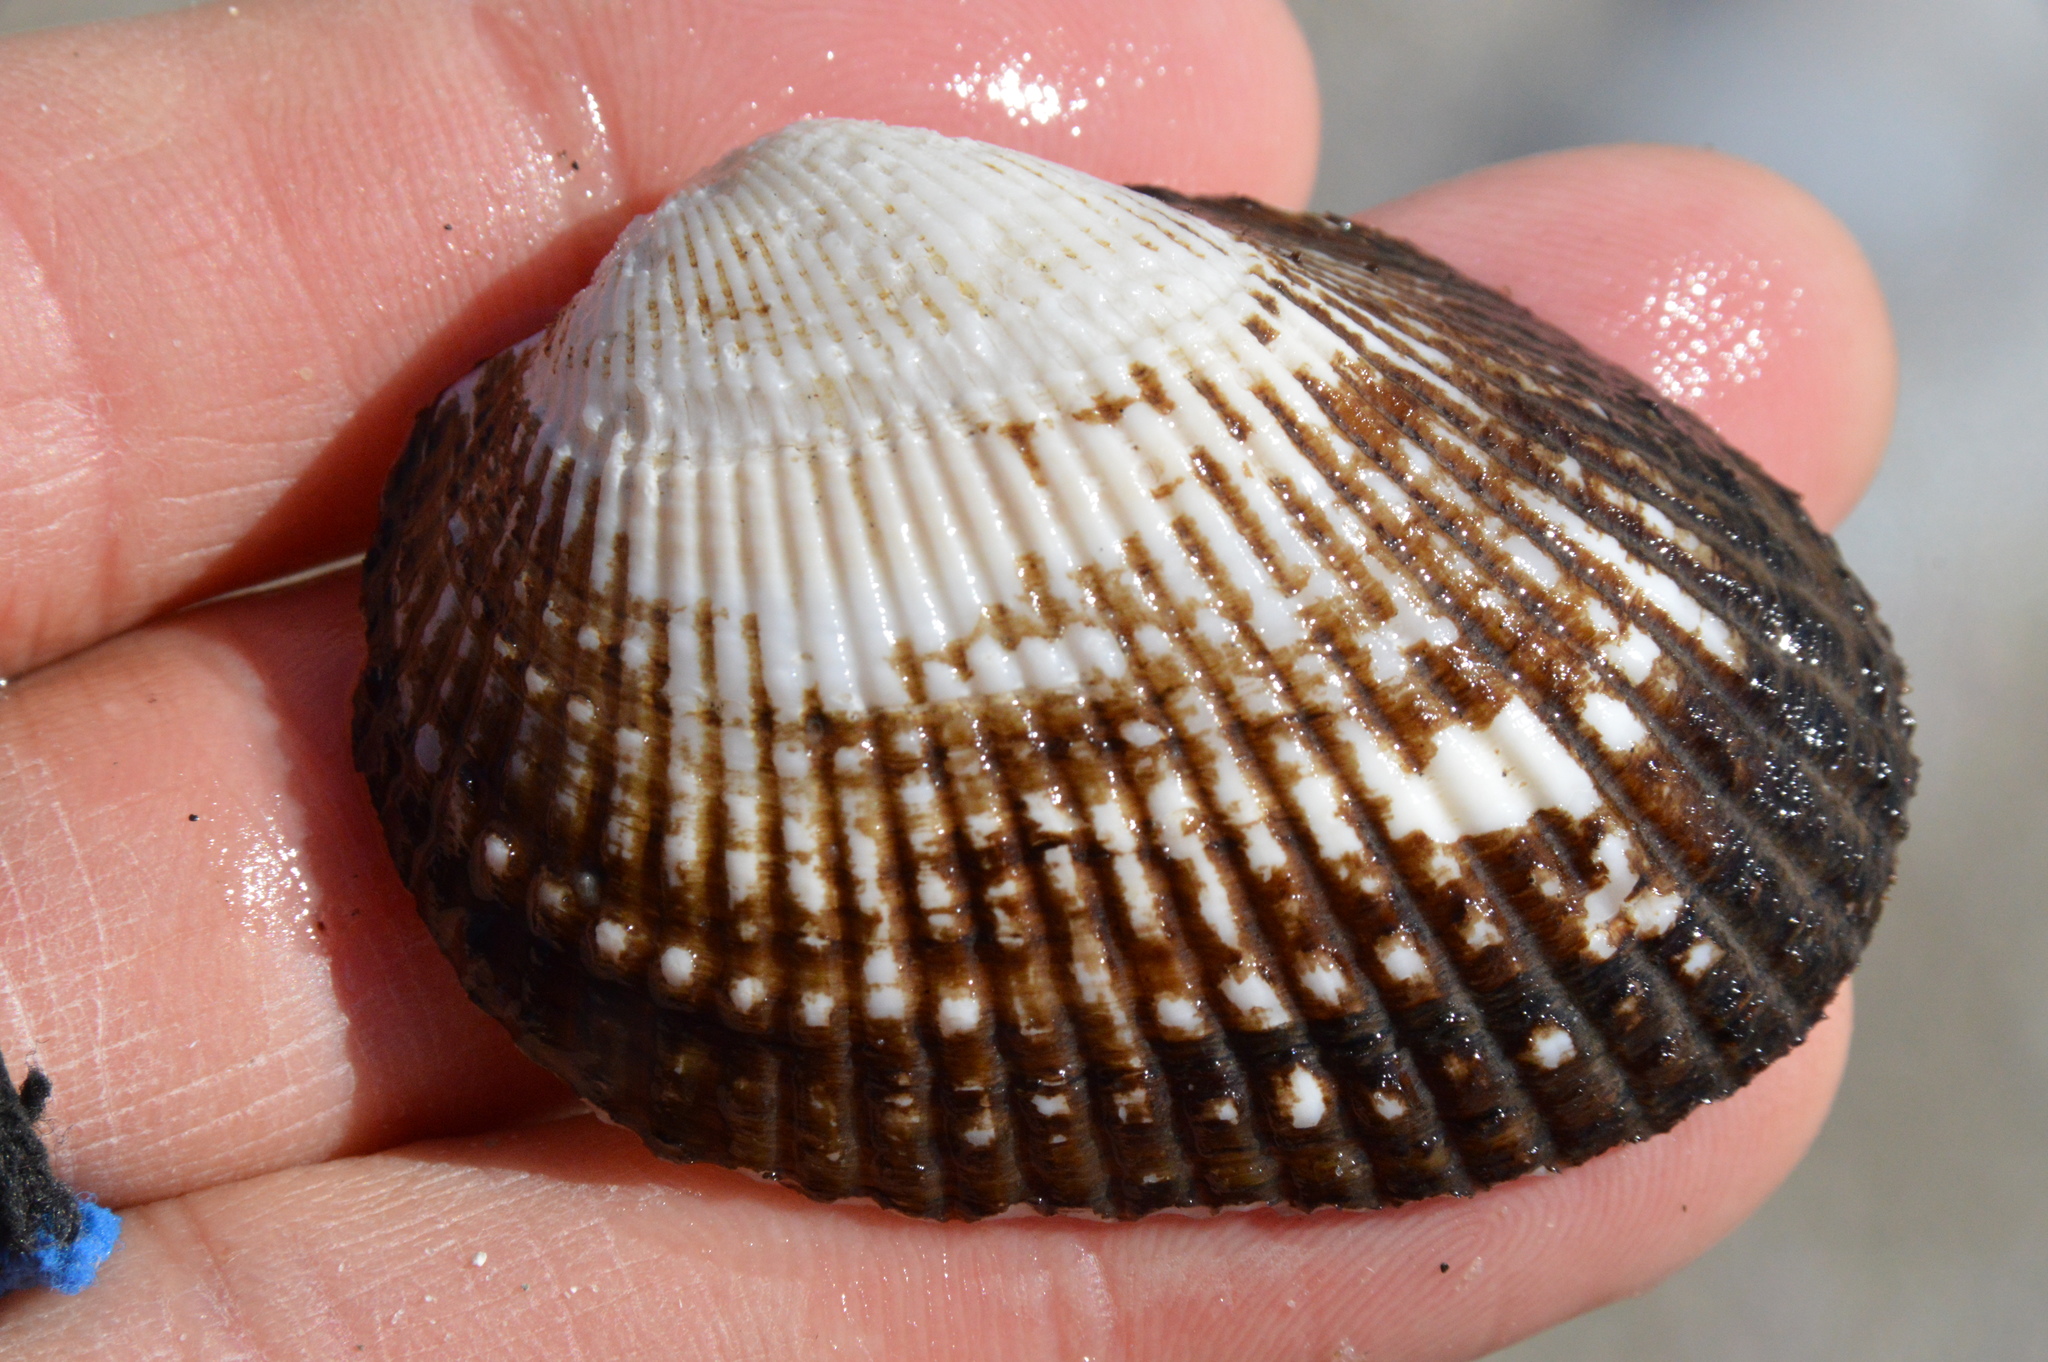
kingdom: Animalia
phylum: Mollusca
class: Bivalvia
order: Arcida
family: Arcidae
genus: Anadara
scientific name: Anadara transversa
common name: Transverse ark
